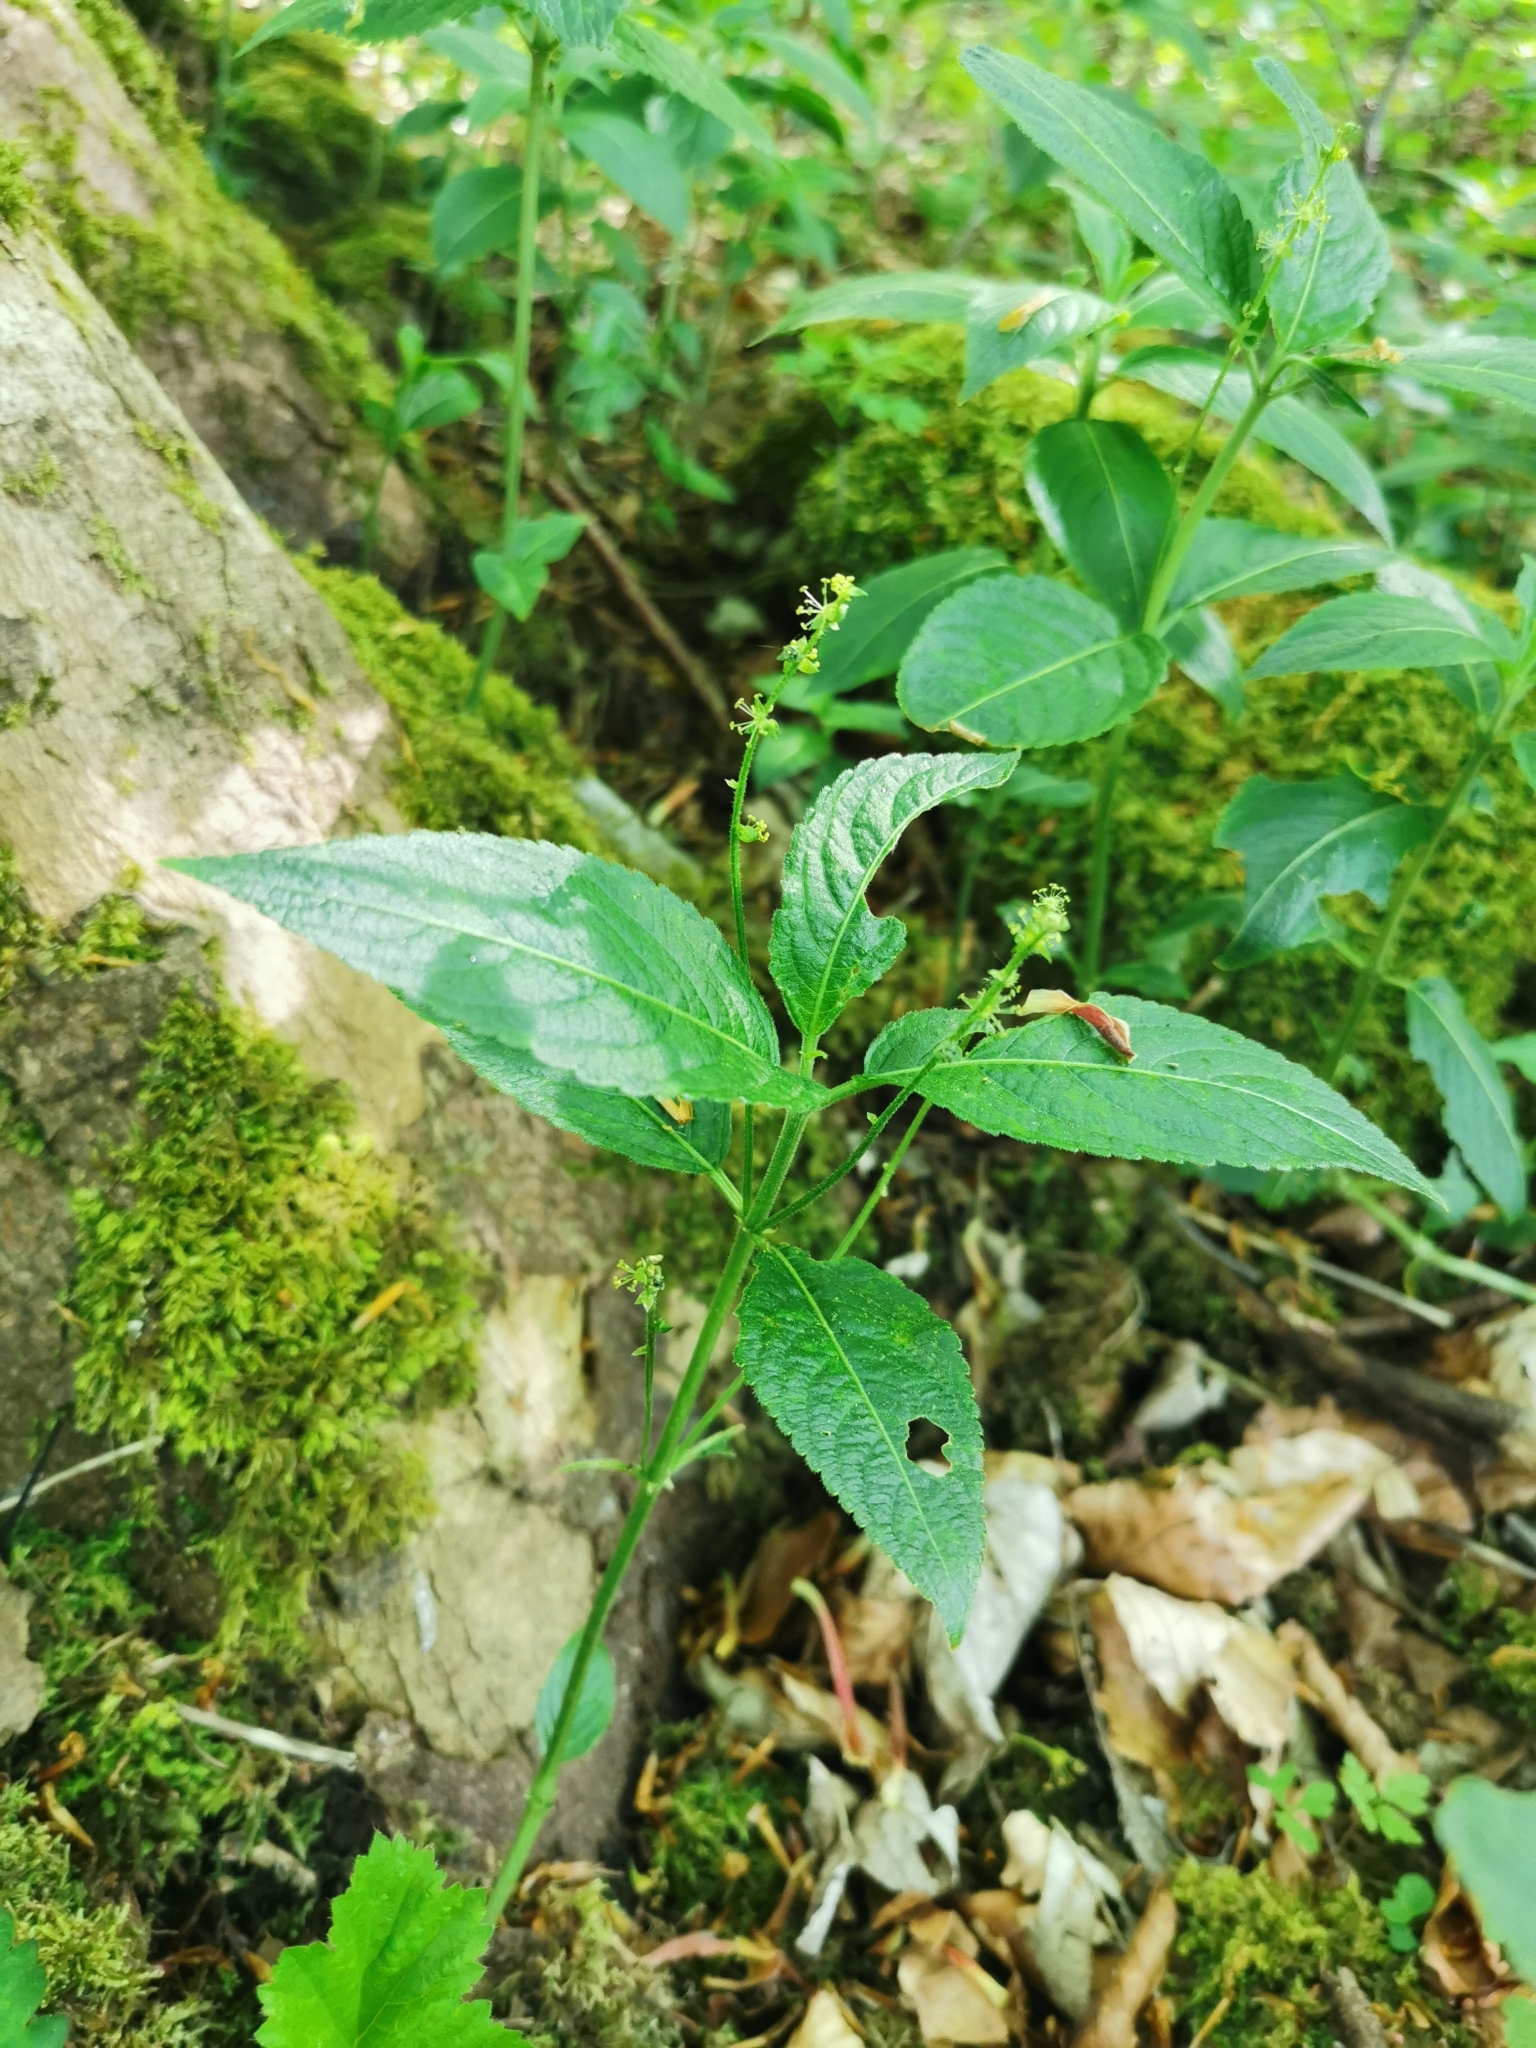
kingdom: Plantae
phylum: Tracheophyta
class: Magnoliopsida
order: Malpighiales
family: Euphorbiaceae
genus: Mercurialis
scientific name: Mercurialis perennis
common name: Dog mercury
